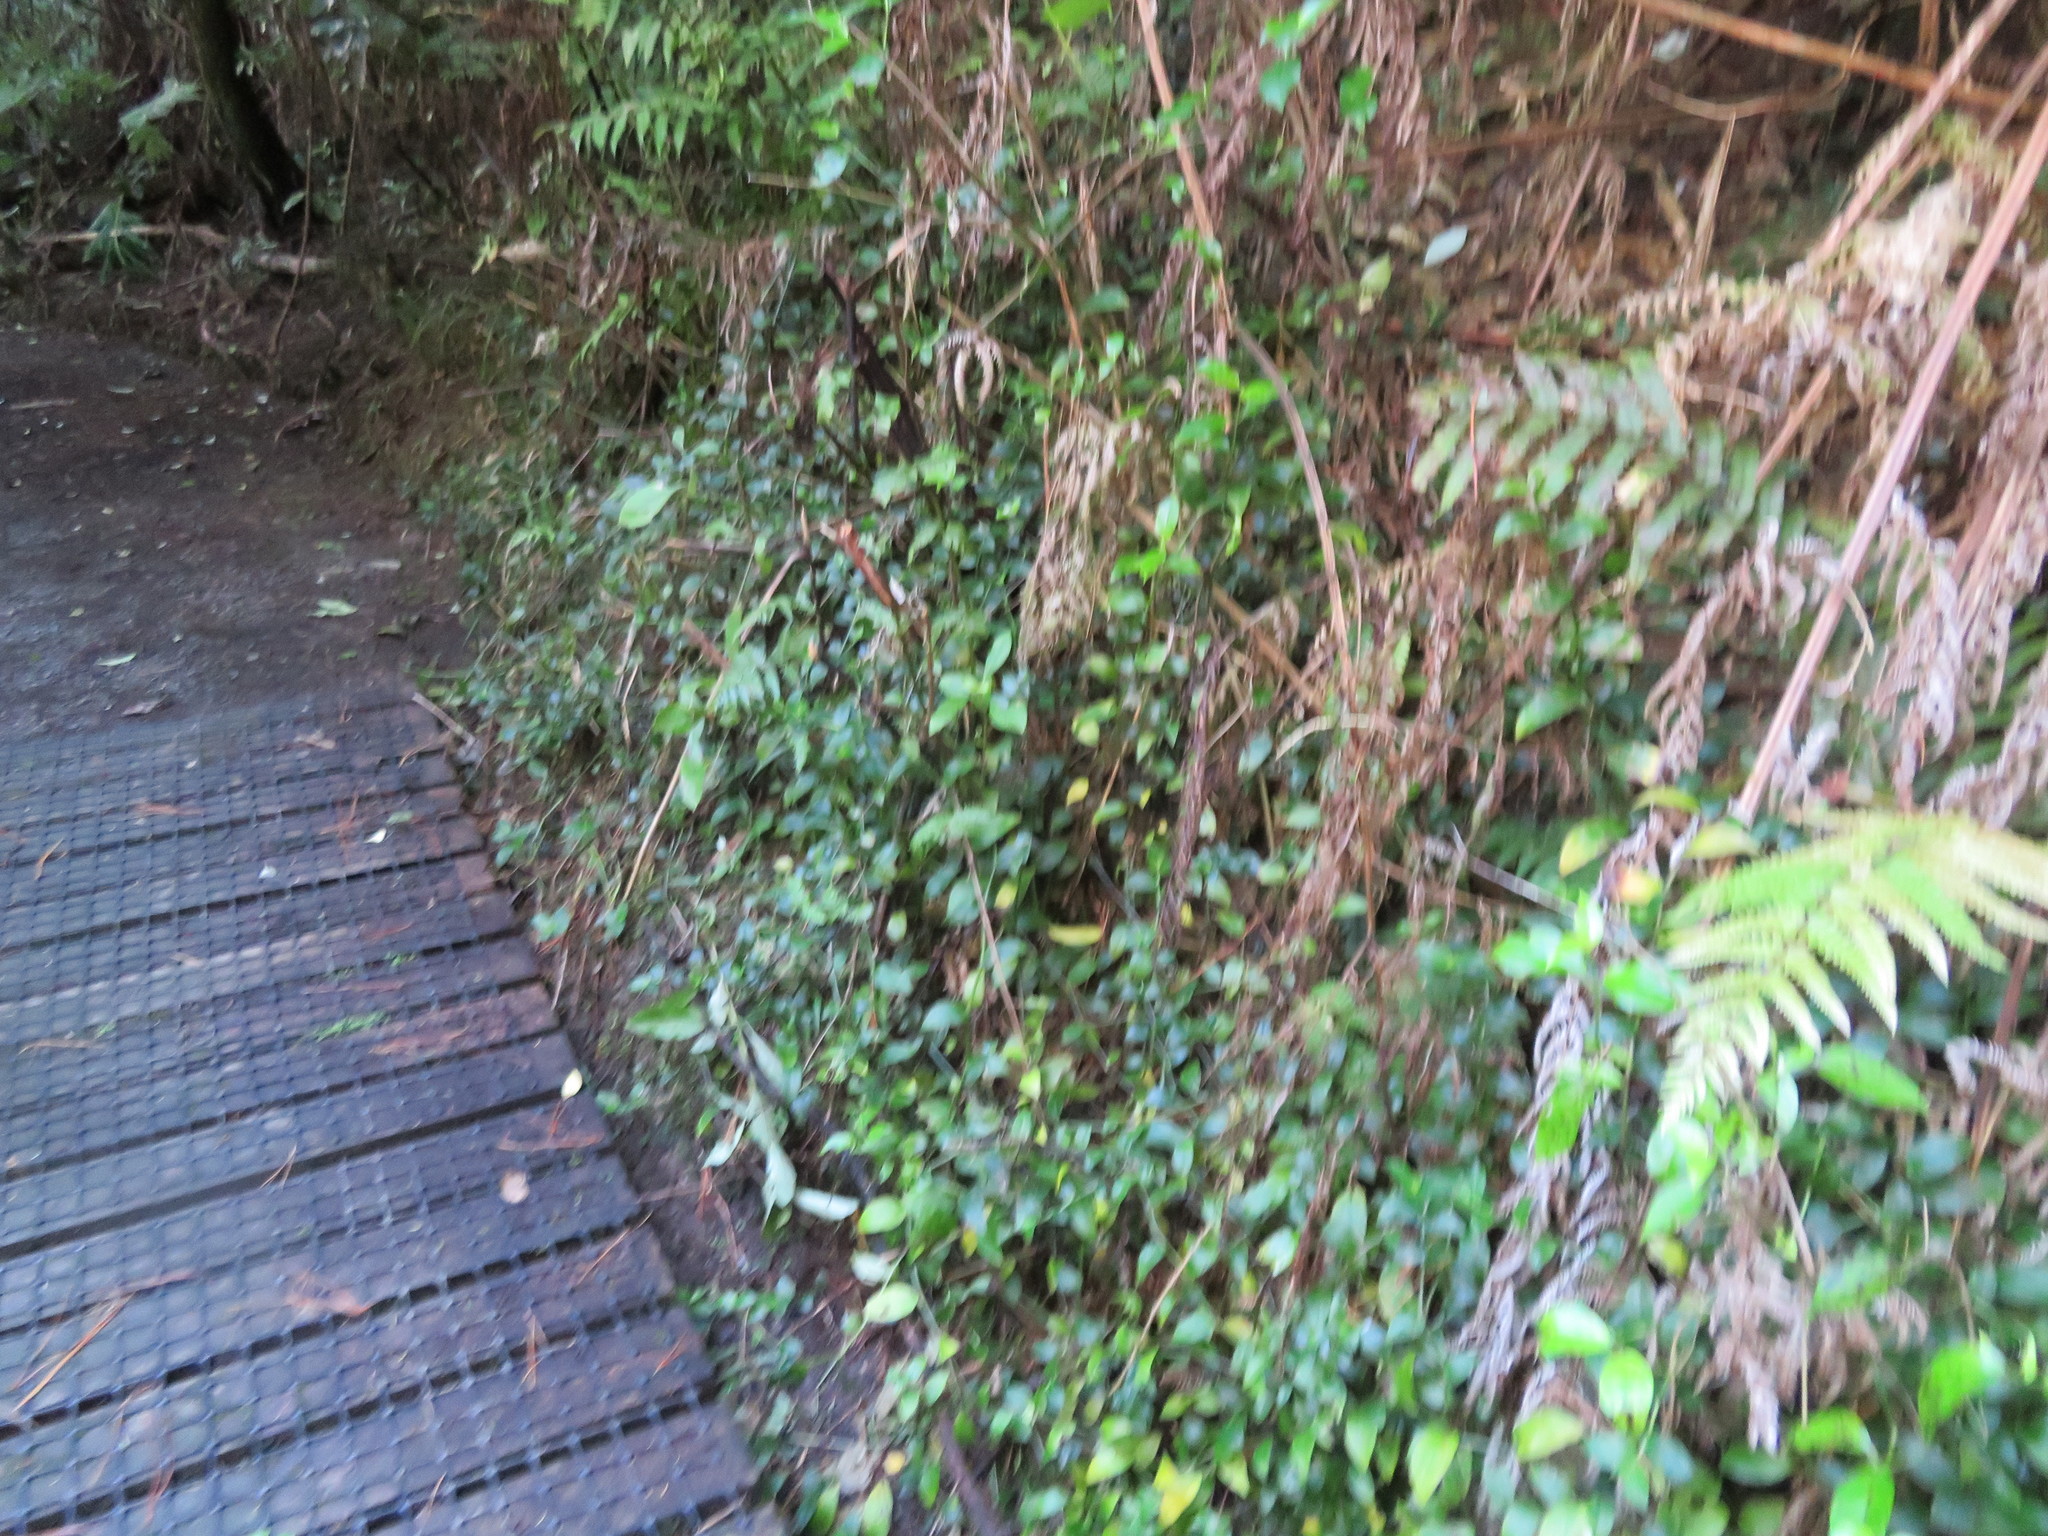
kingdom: Plantae
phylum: Tracheophyta
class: Liliopsida
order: Commelinales
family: Commelinaceae
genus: Tradescantia
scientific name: Tradescantia fluminensis
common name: Wandering-jew
